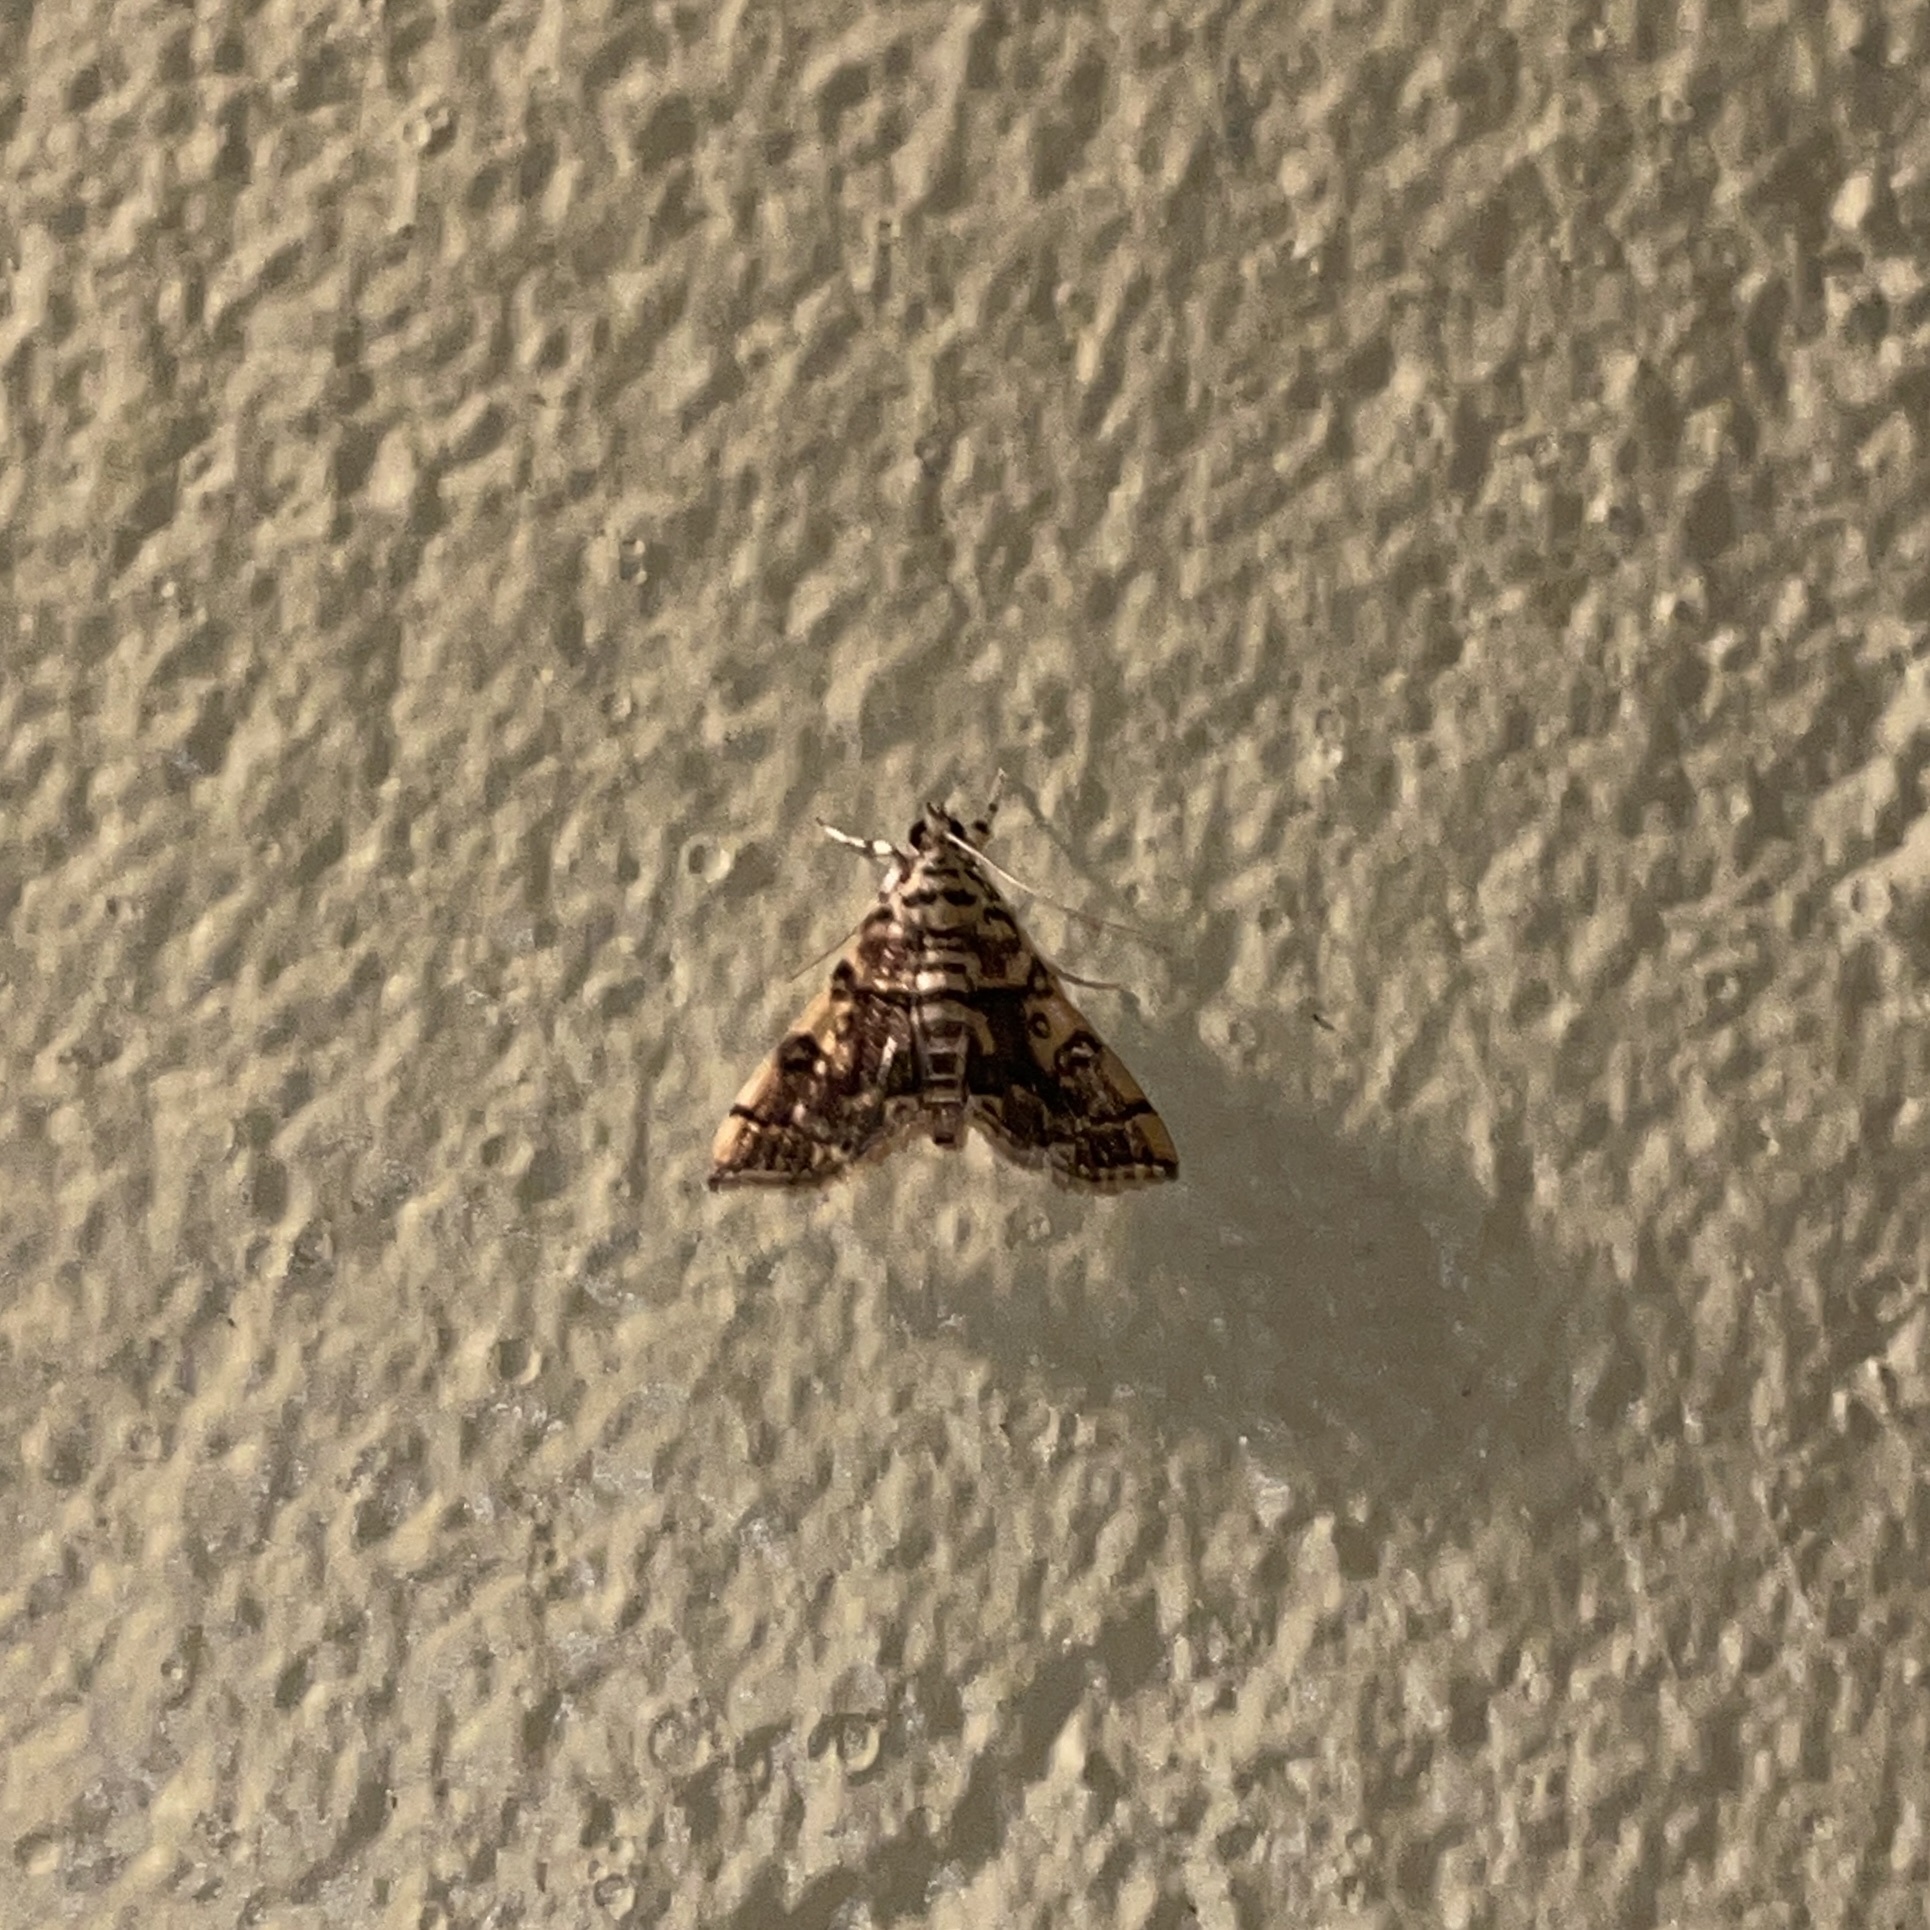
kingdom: Animalia
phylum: Arthropoda
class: Insecta
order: Lepidoptera
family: Crambidae
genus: Apogeshna
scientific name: Apogeshna stenialis
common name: Checkered apogeshna moth
